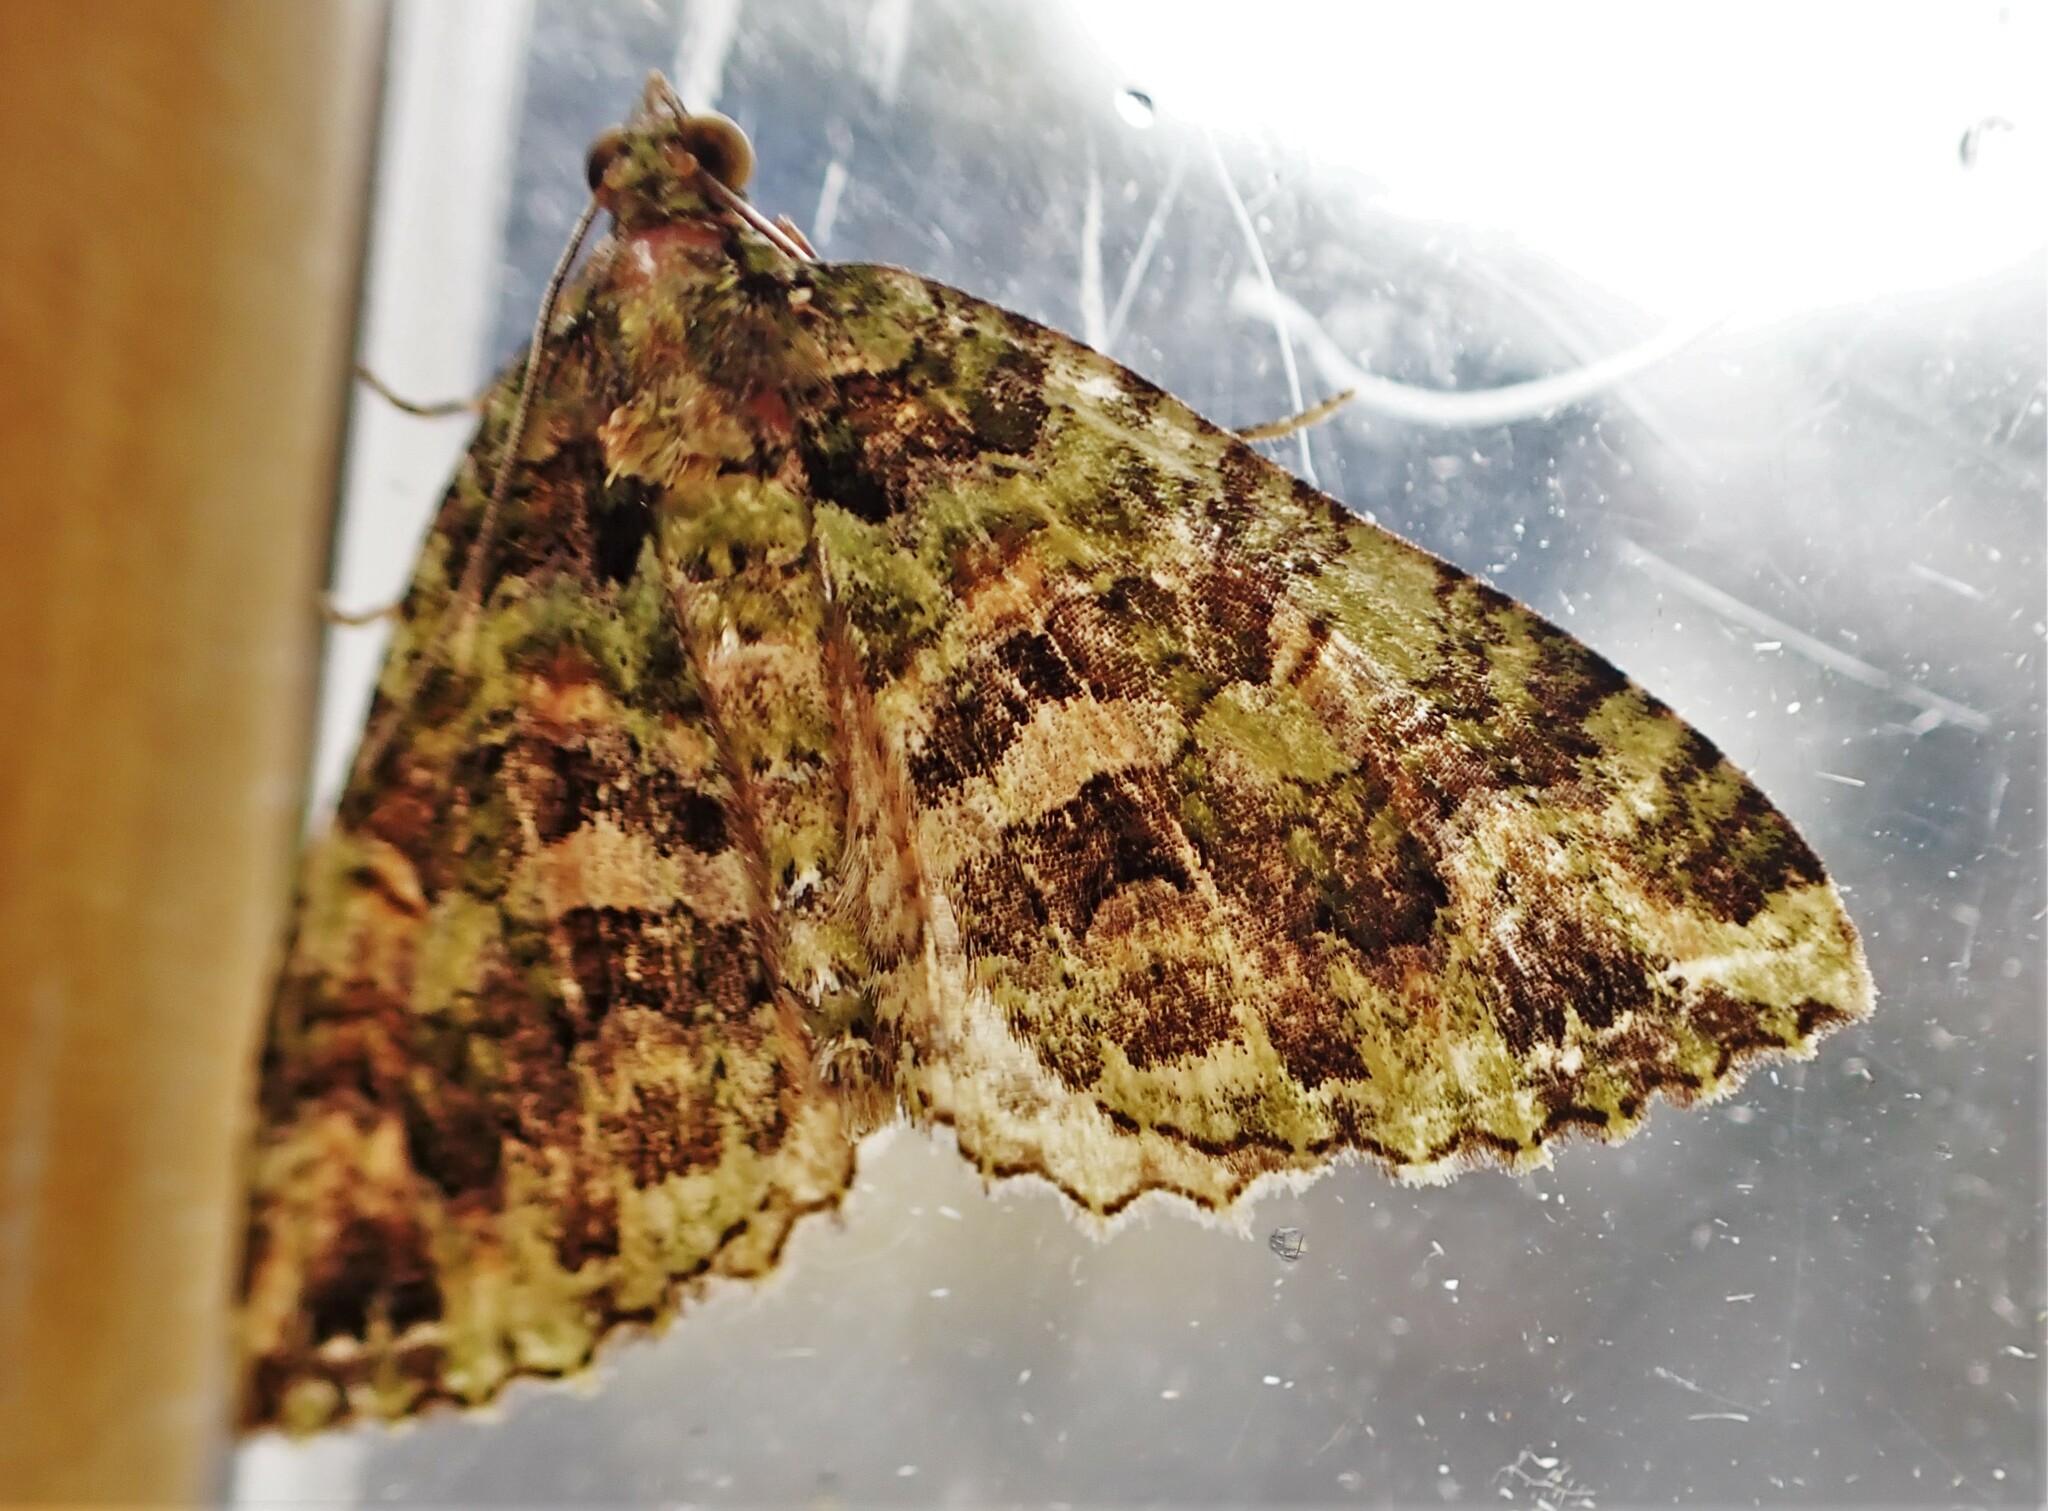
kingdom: Animalia
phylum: Arthropoda
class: Insecta
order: Lepidoptera
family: Geometridae
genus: Austrocidaria
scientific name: Austrocidaria similata
